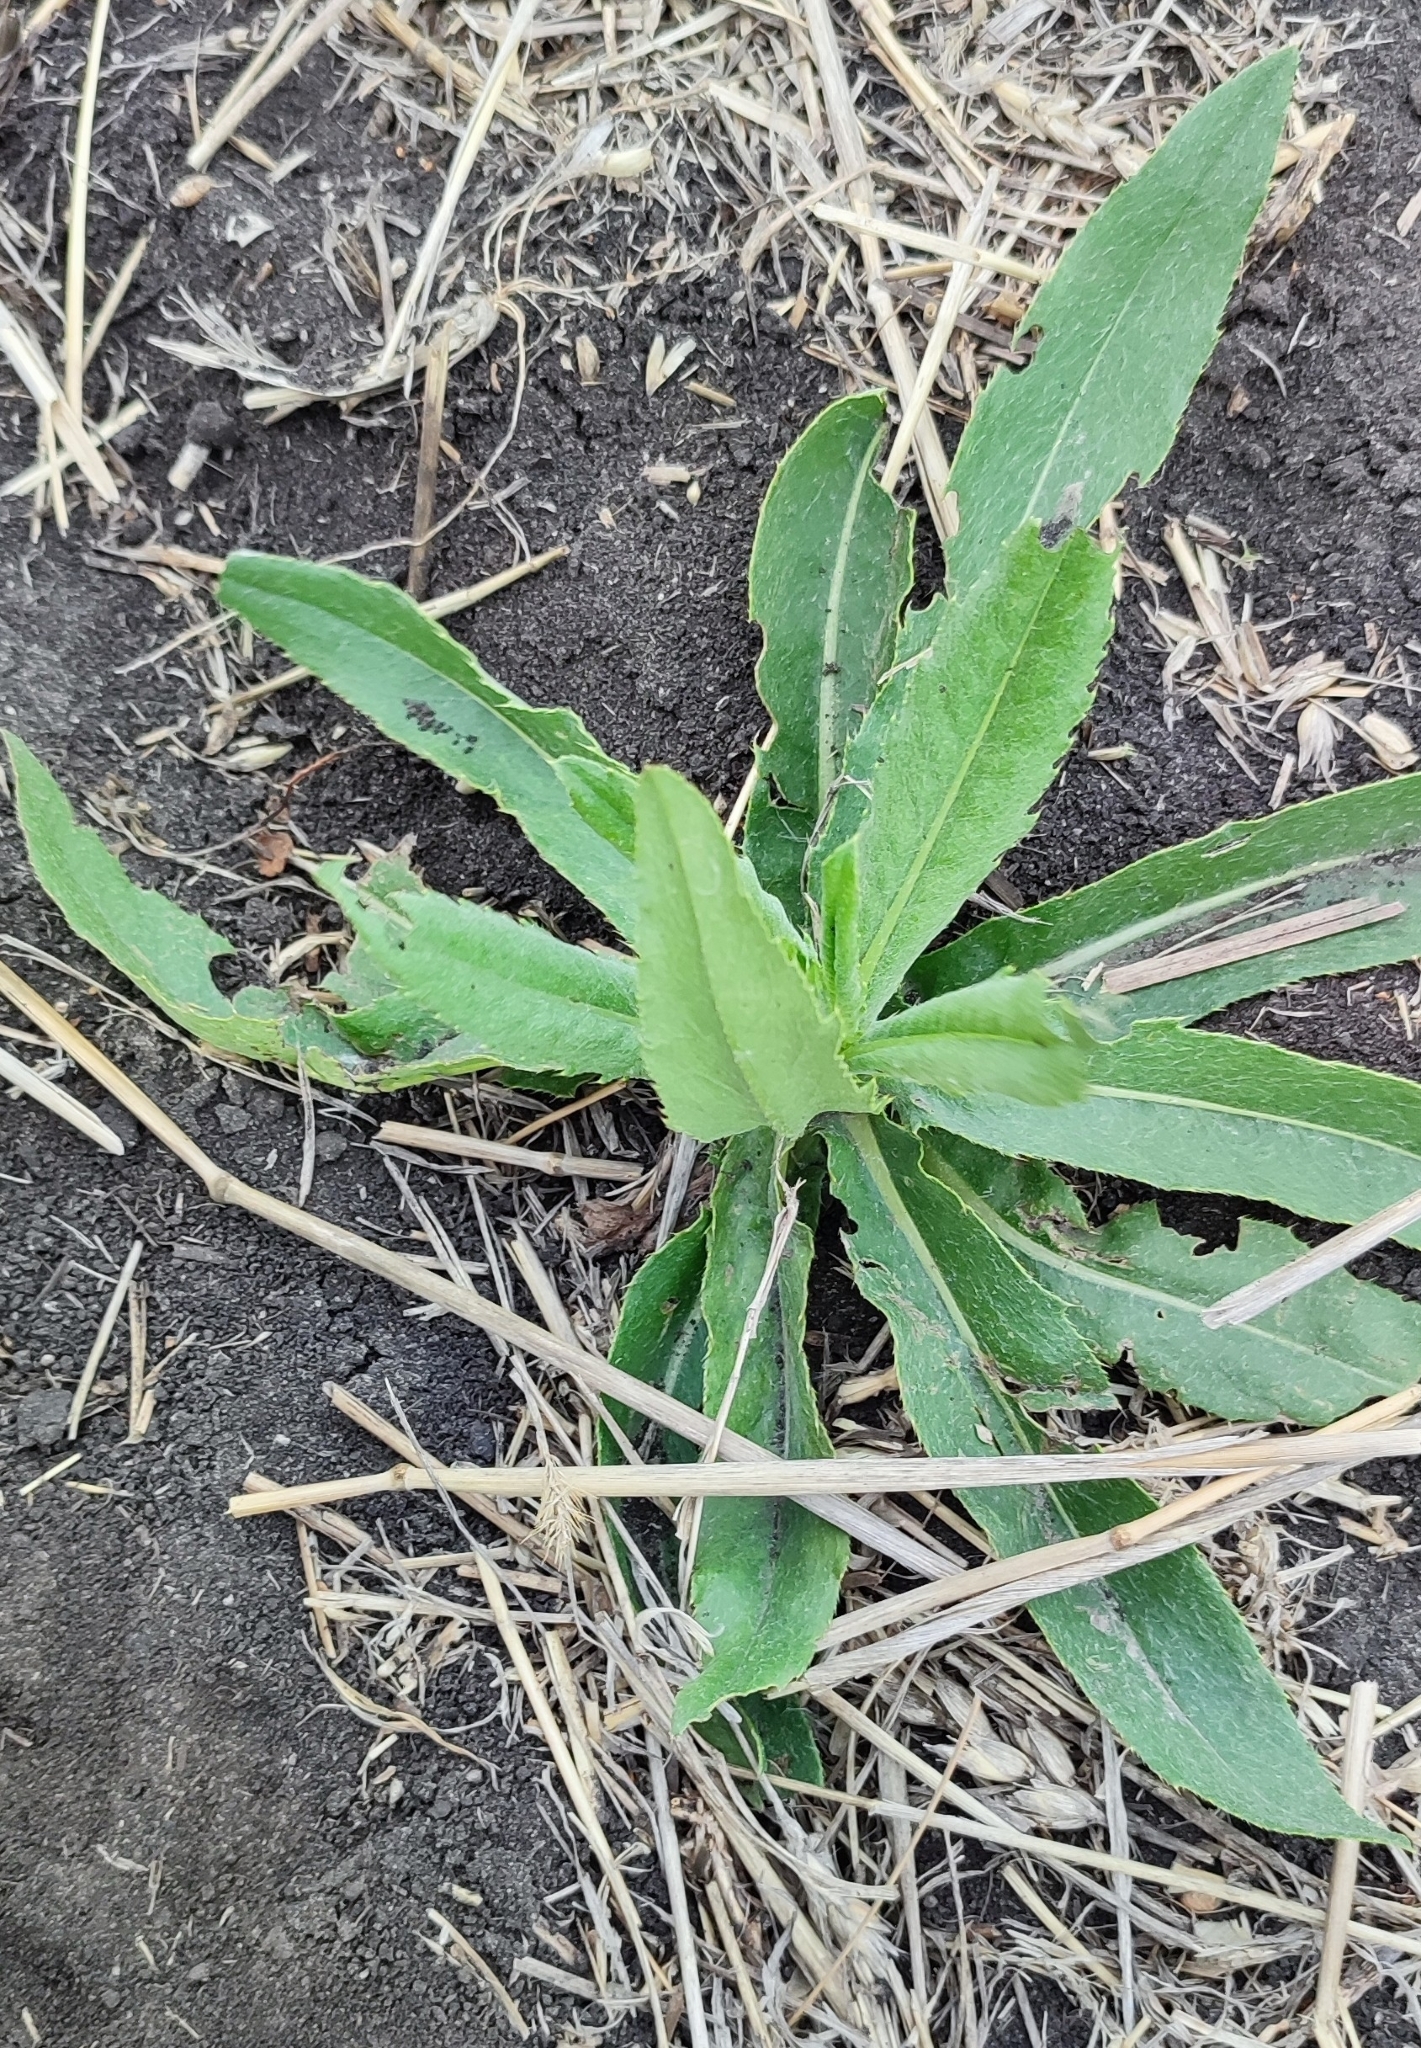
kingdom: Plantae
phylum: Tracheophyta
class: Magnoliopsida
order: Asterales
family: Asteraceae
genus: Cirsium
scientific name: Cirsium arvense
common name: Creeping thistle
